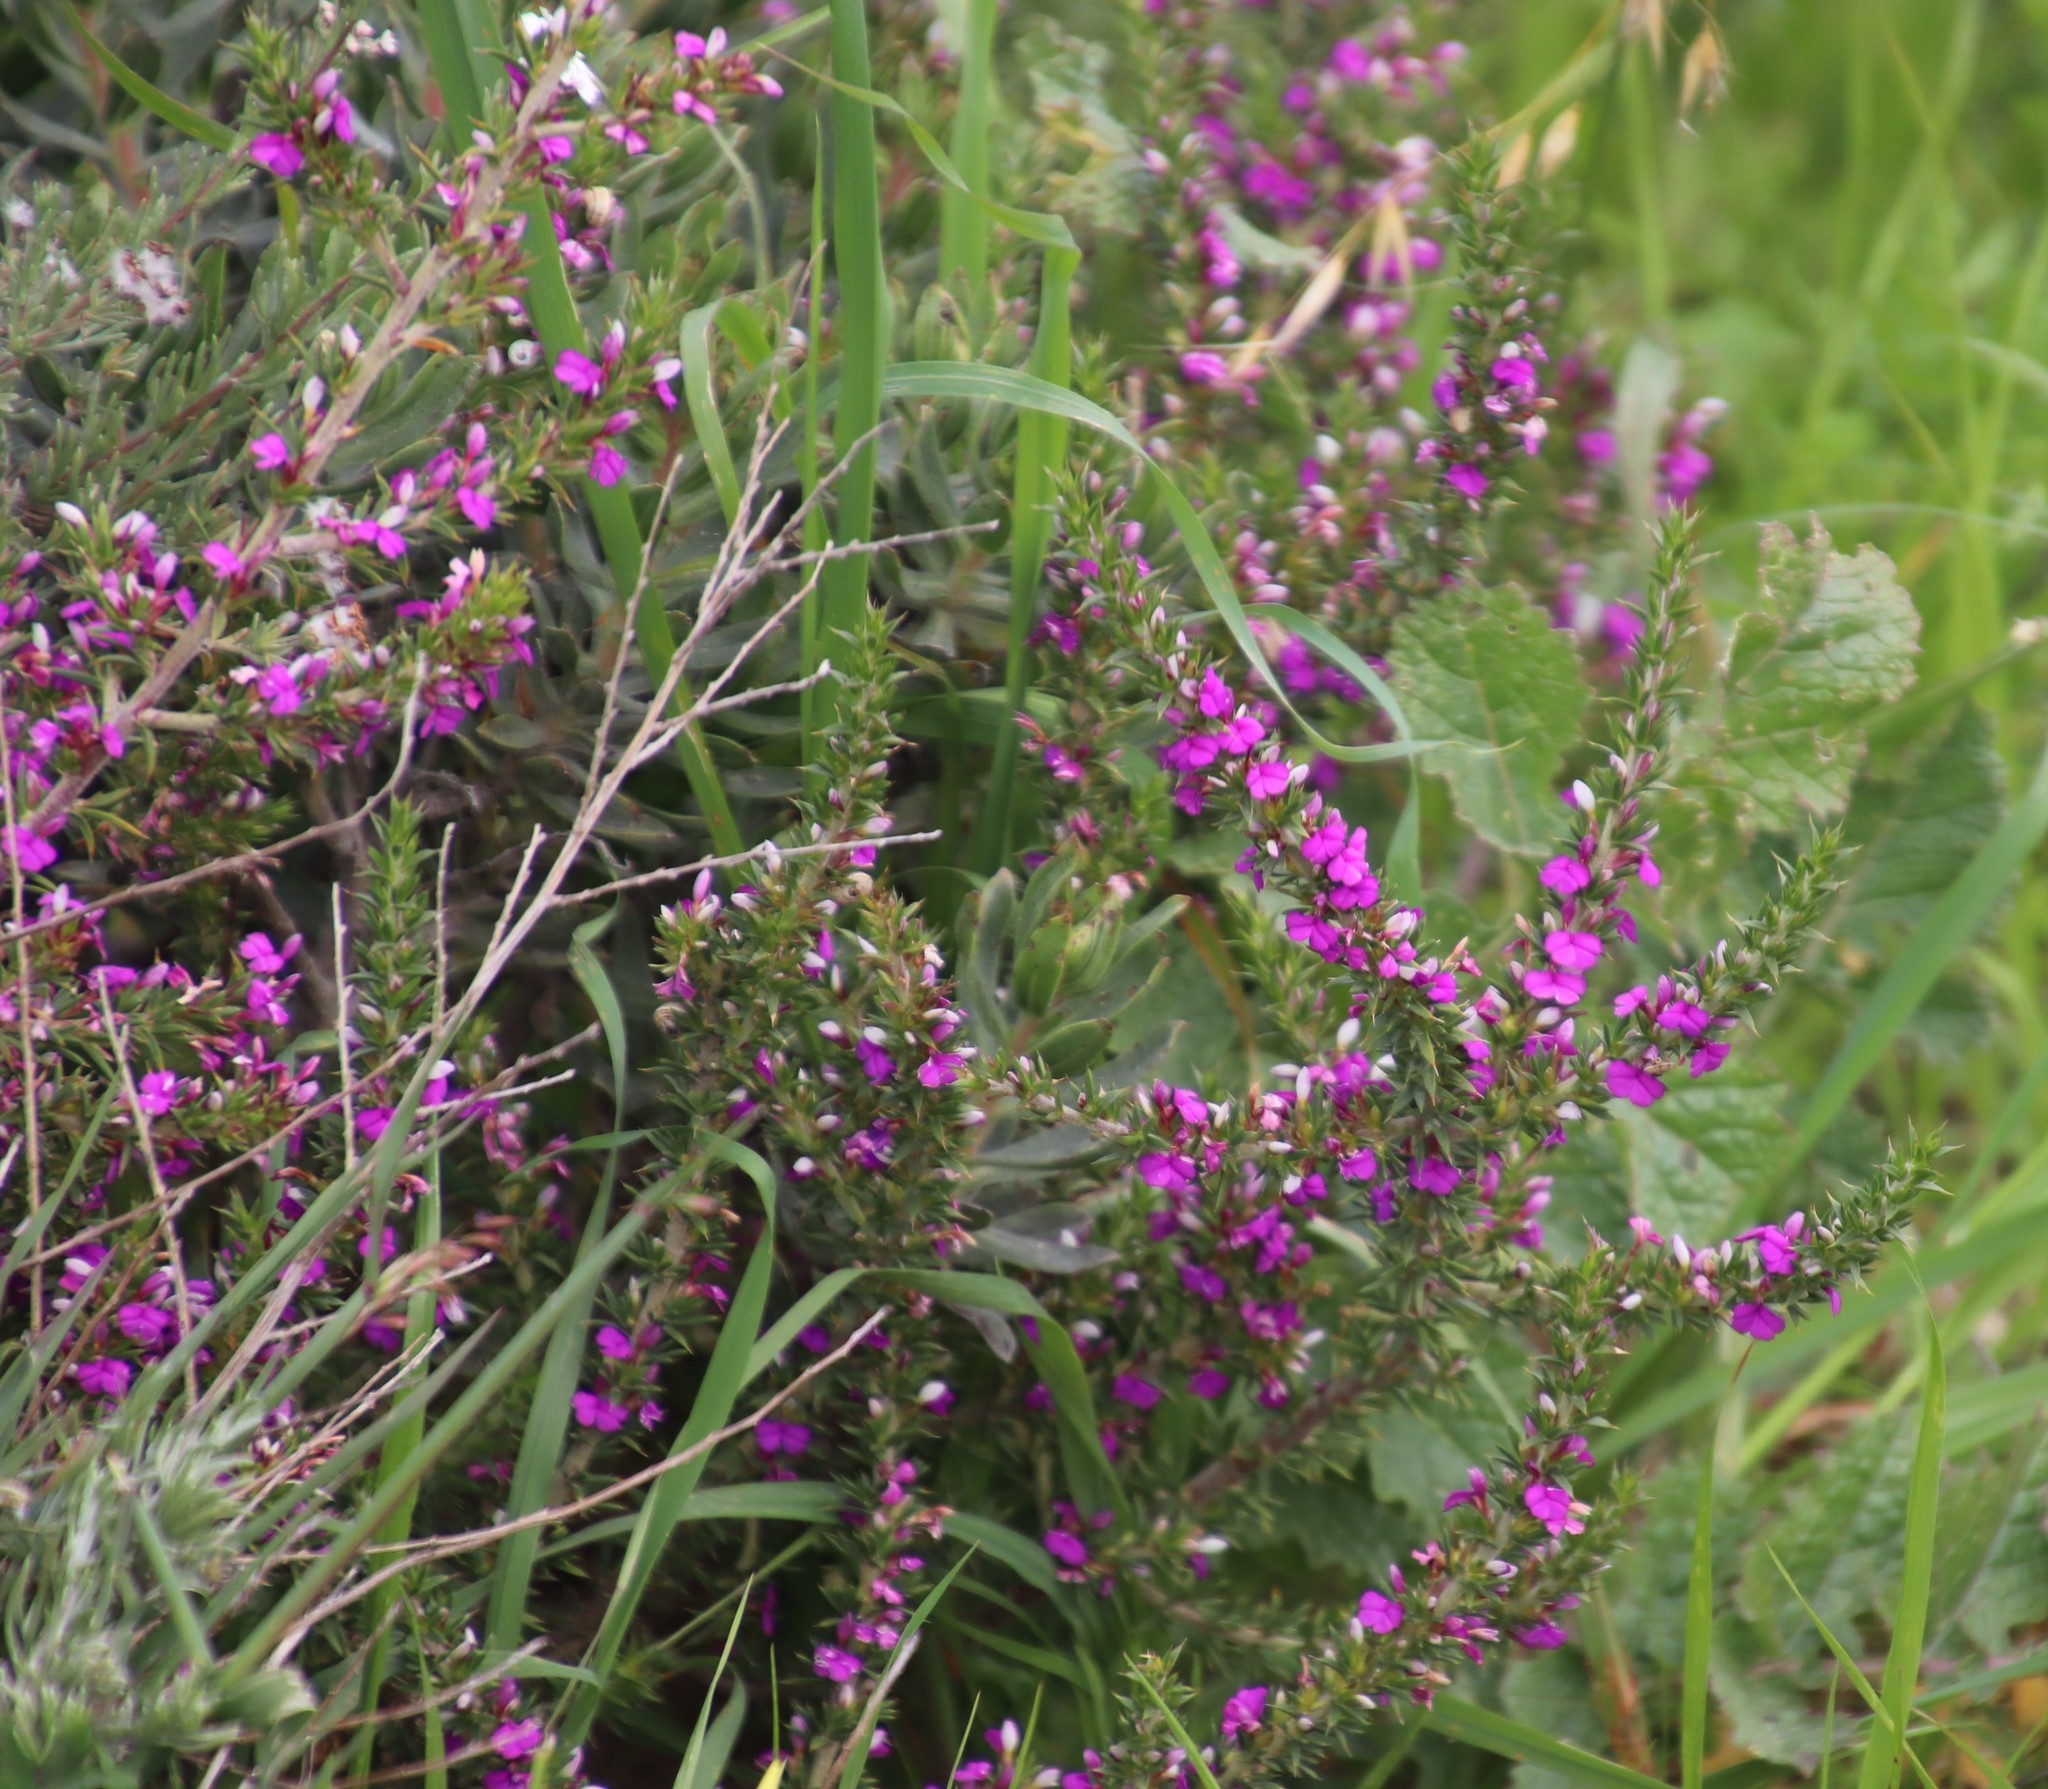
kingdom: Plantae
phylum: Tracheophyta
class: Magnoliopsida
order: Fabales
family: Polygalaceae
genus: Muraltia
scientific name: Muraltia heisteria
